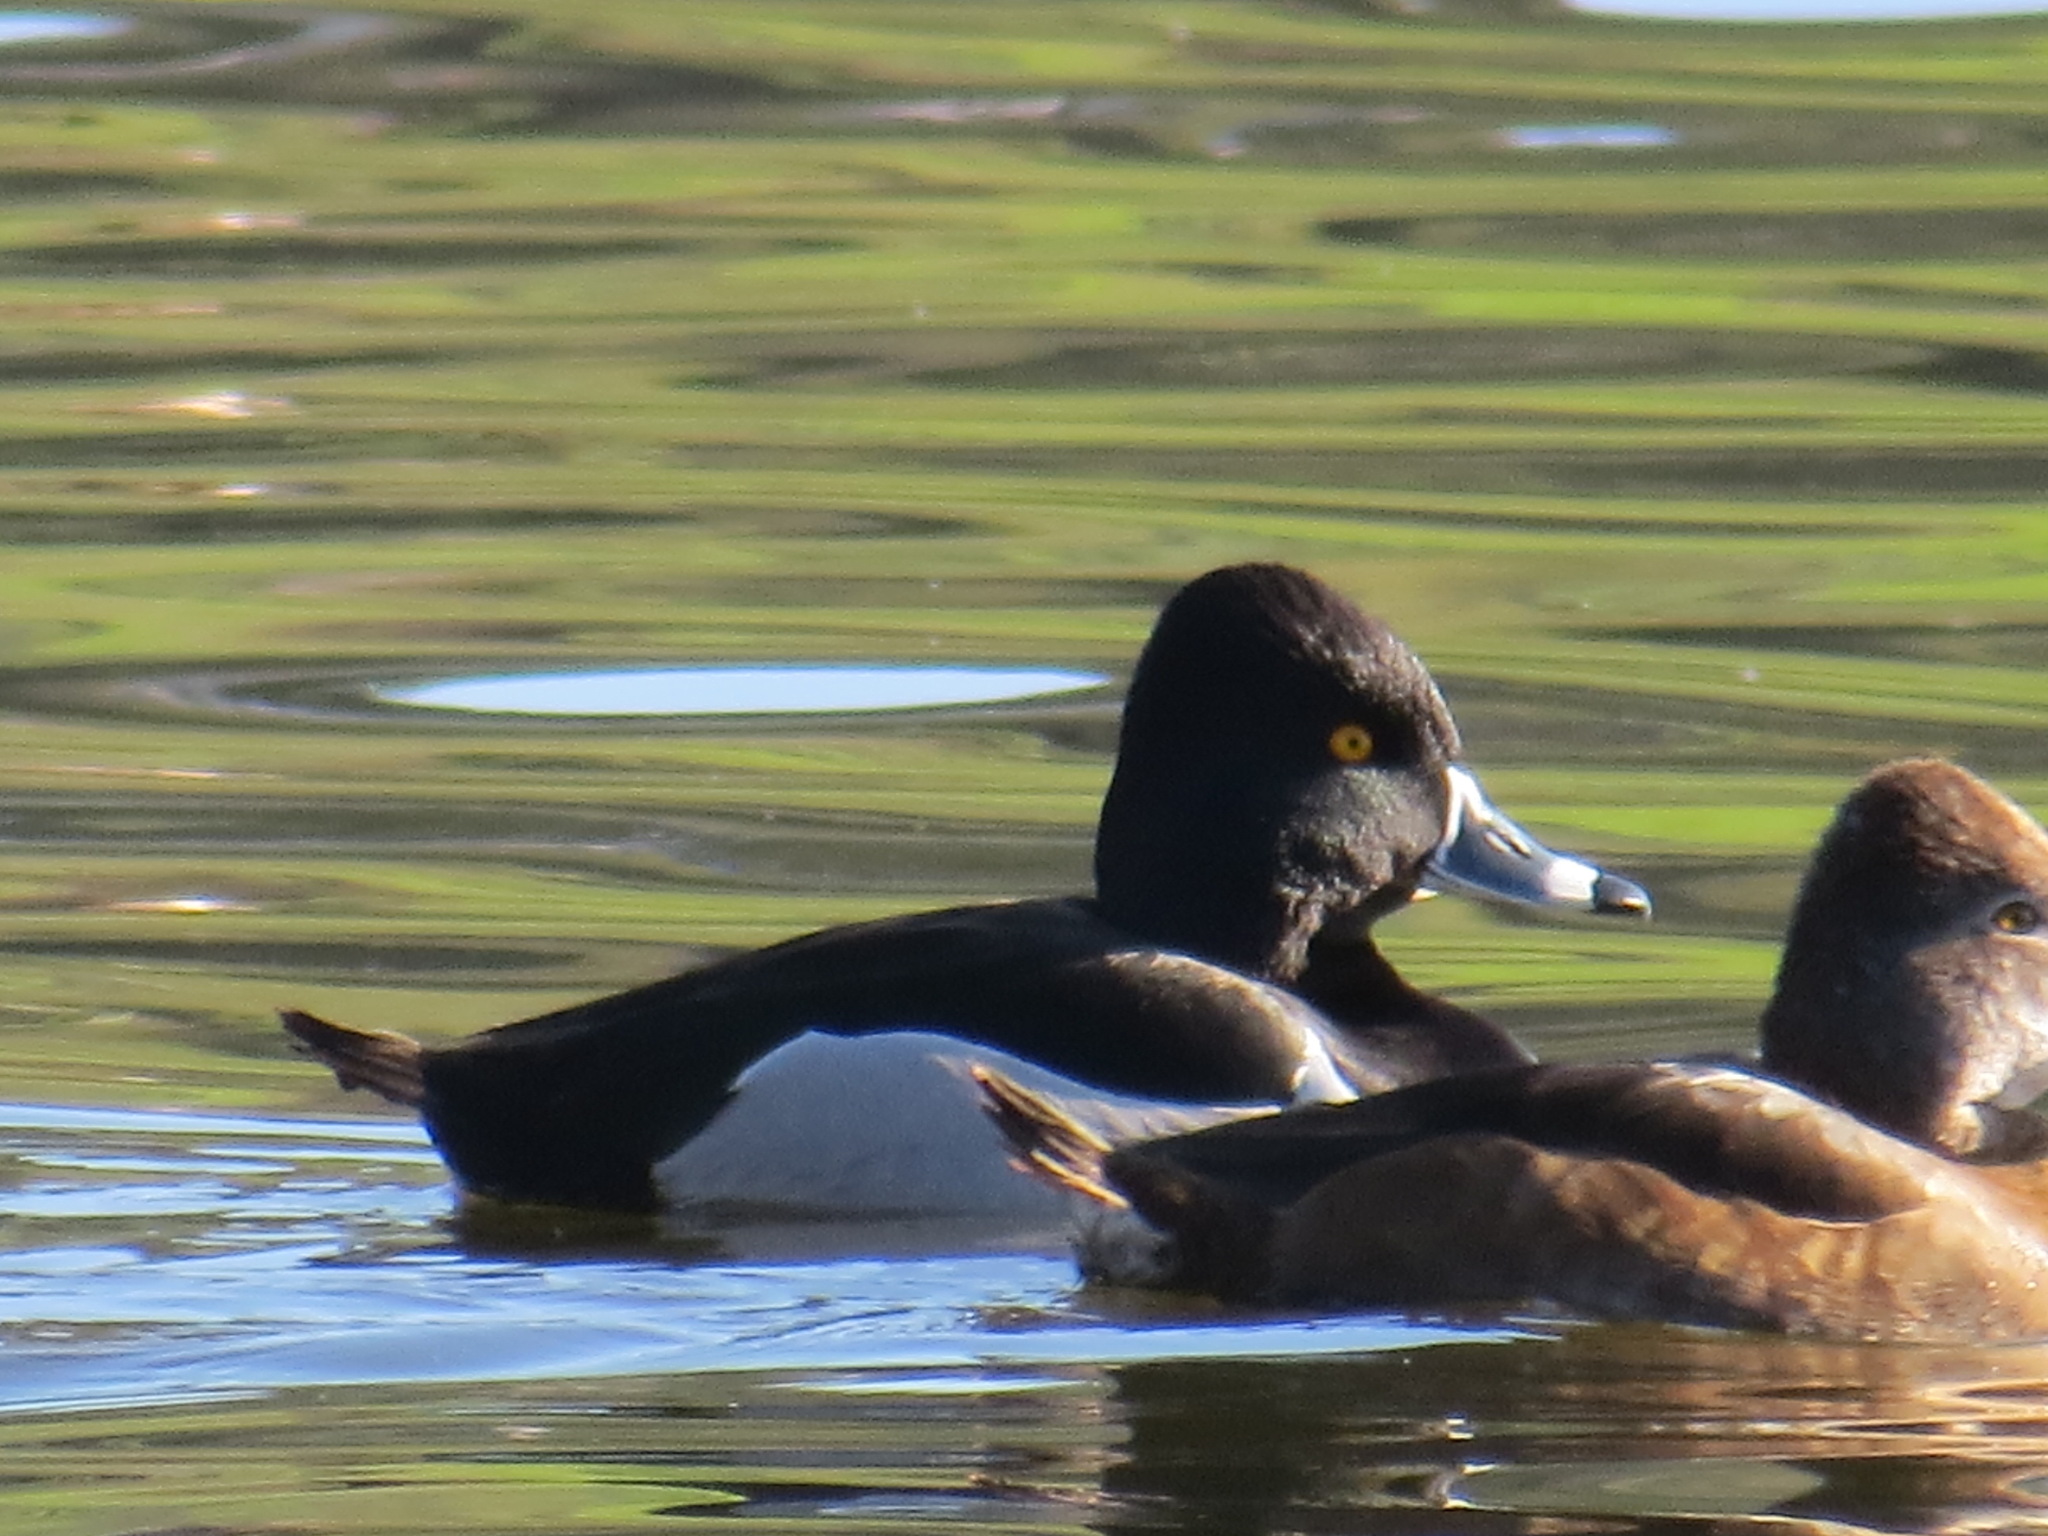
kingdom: Animalia
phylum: Chordata
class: Aves
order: Anseriformes
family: Anatidae
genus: Aythya
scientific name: Aythya collaris
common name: Ring-necked duck
